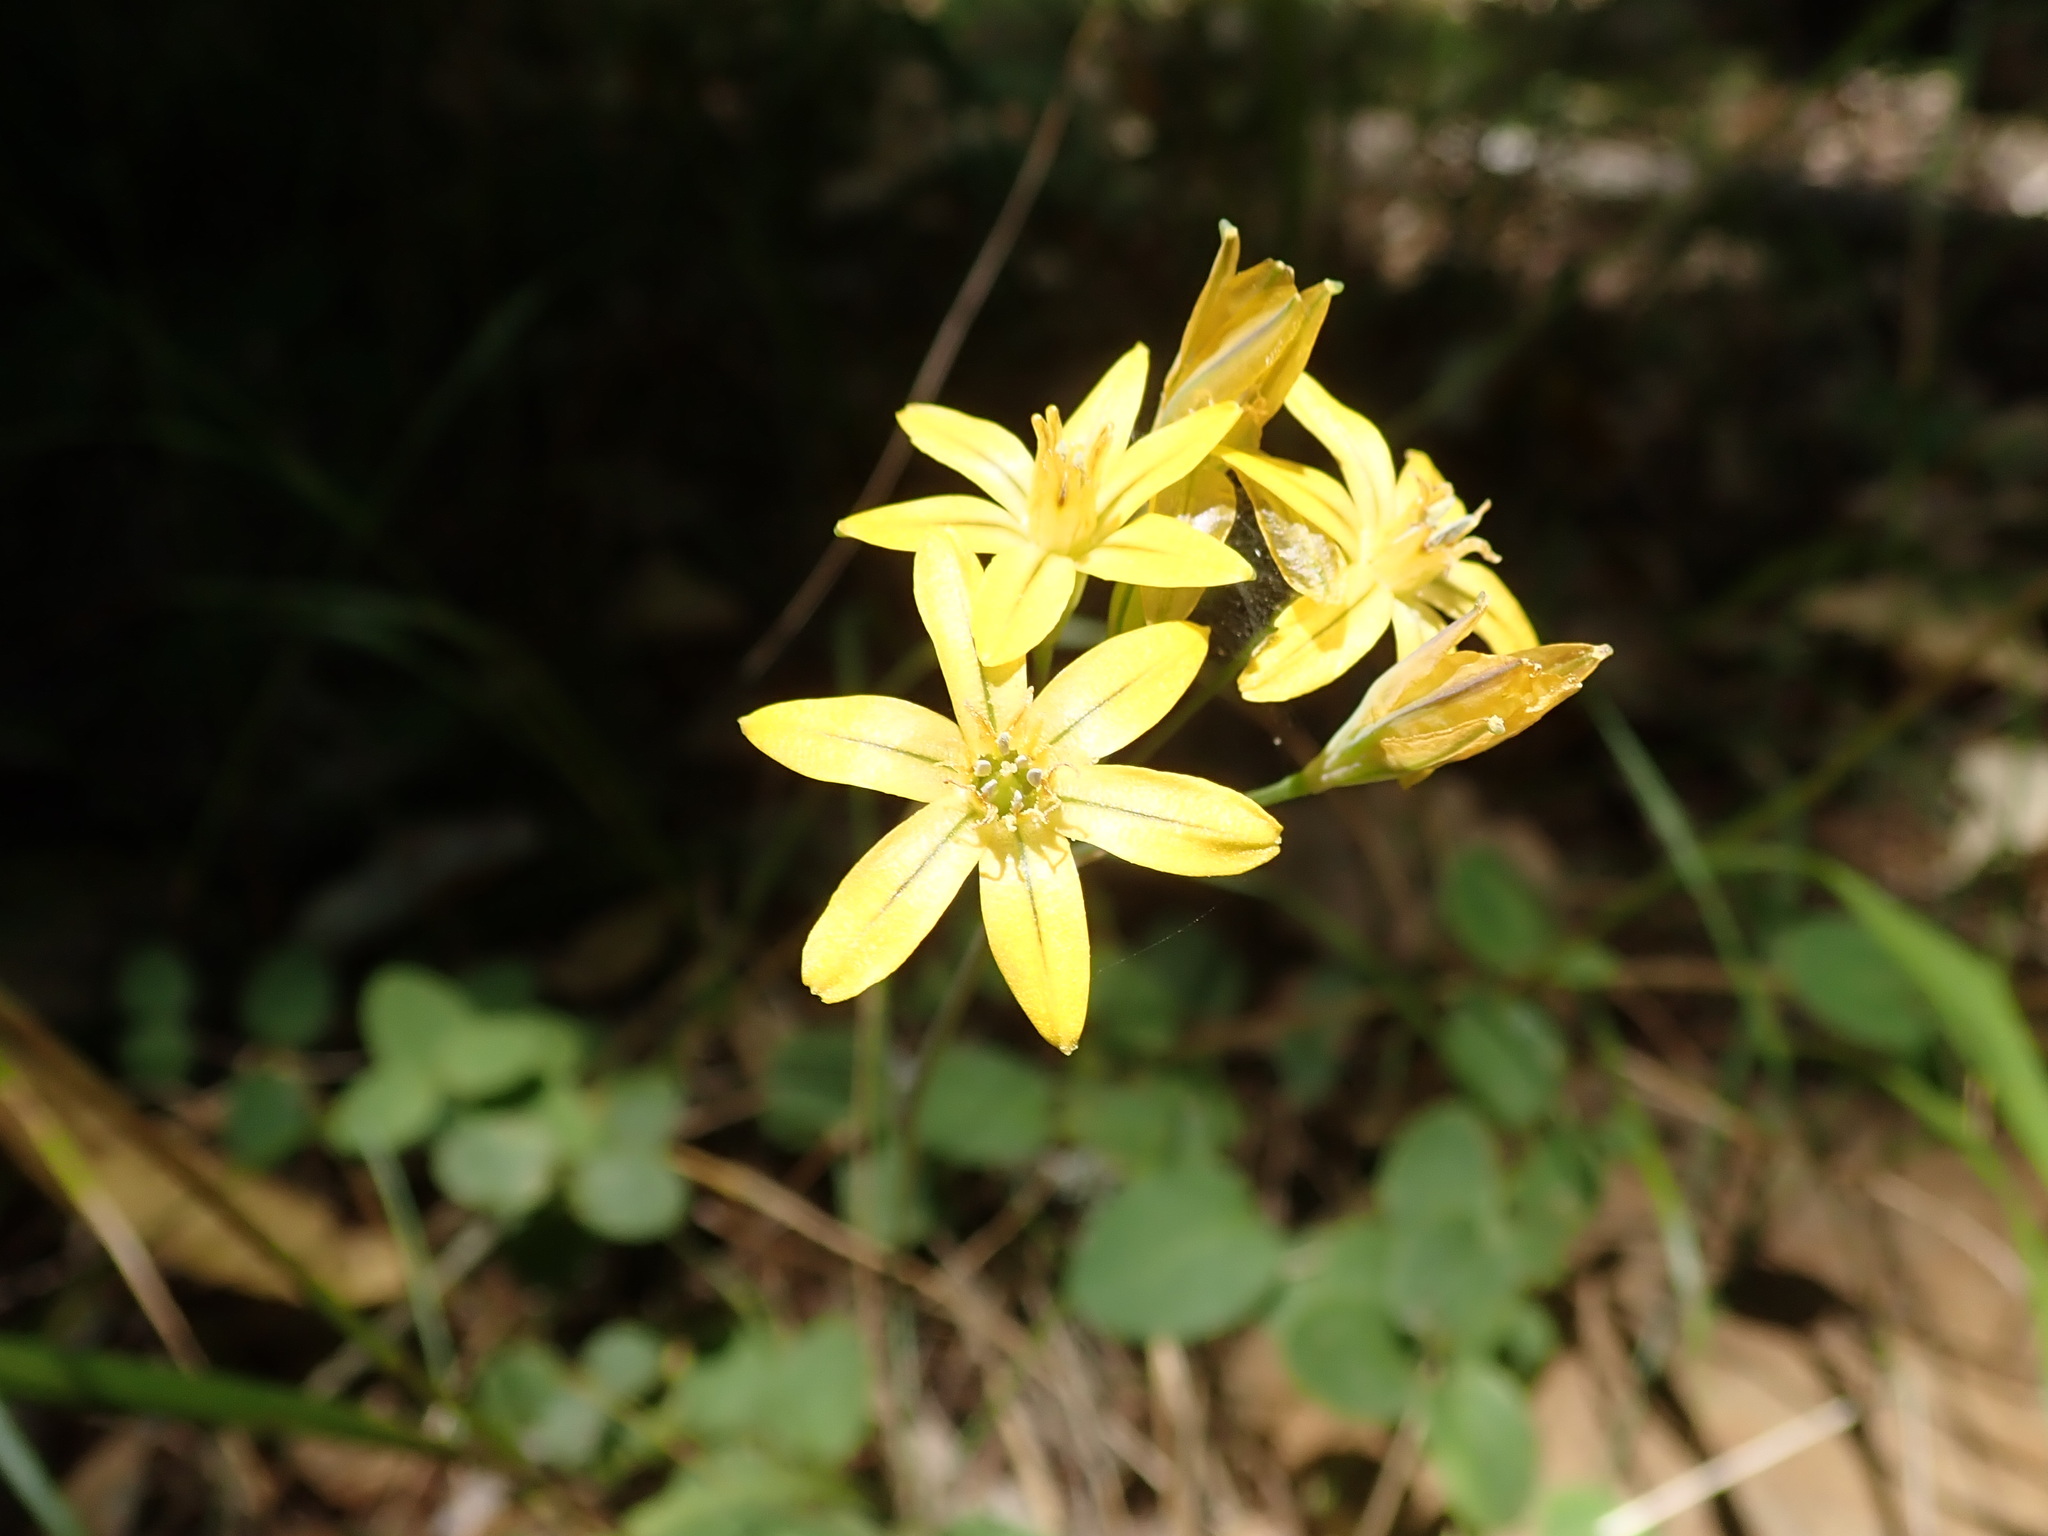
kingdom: Plantae
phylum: Tracheophyta
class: Liliopsida
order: Asparagales
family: Asparagaceae
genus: Triteleia
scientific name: Triteleia ixioides
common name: Yellow-brodiaea
